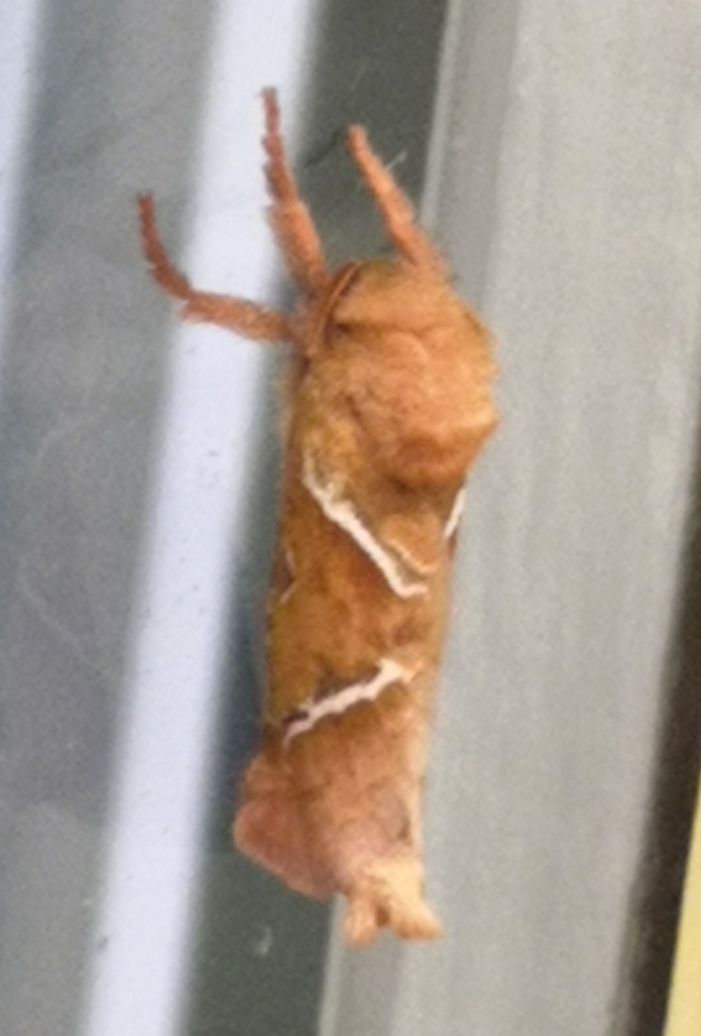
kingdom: Animalia
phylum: Arthropoda
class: Insecta
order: Lepidoptera
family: Hepialidae
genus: Triodia
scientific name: Triodia sylvina
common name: Orange swift
